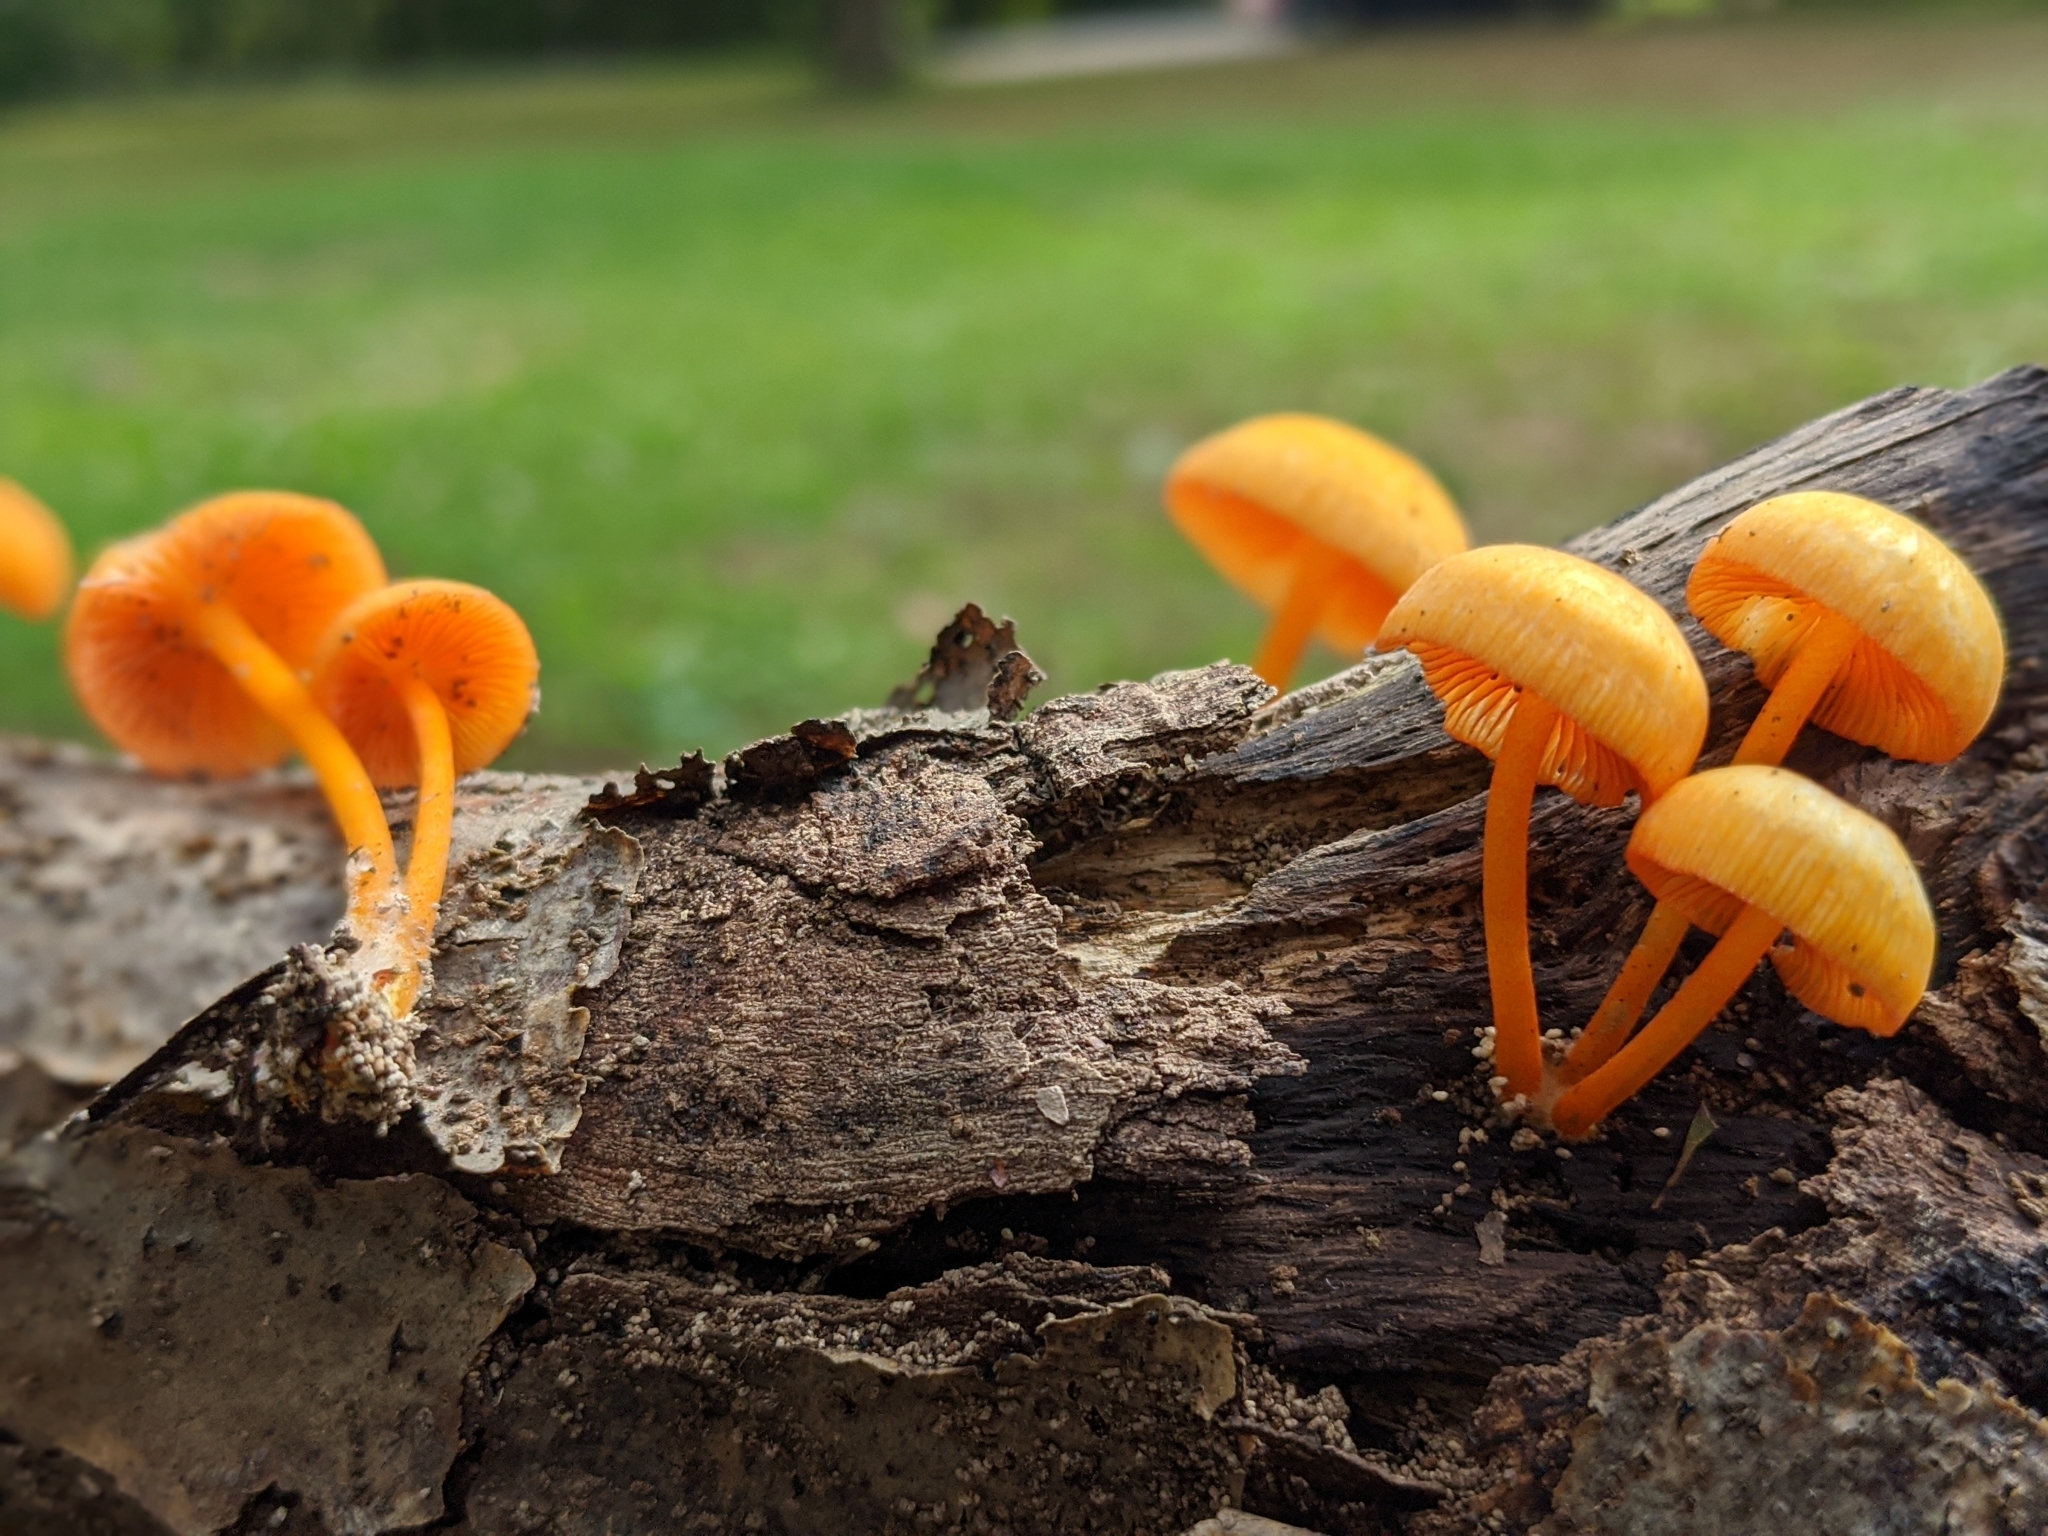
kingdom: Fungi
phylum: Basidiomycota
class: Agaricomycetes
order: Agaricales
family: Mycenaceae
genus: Mycena
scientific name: Mycena leaiana
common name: Orange mycena
